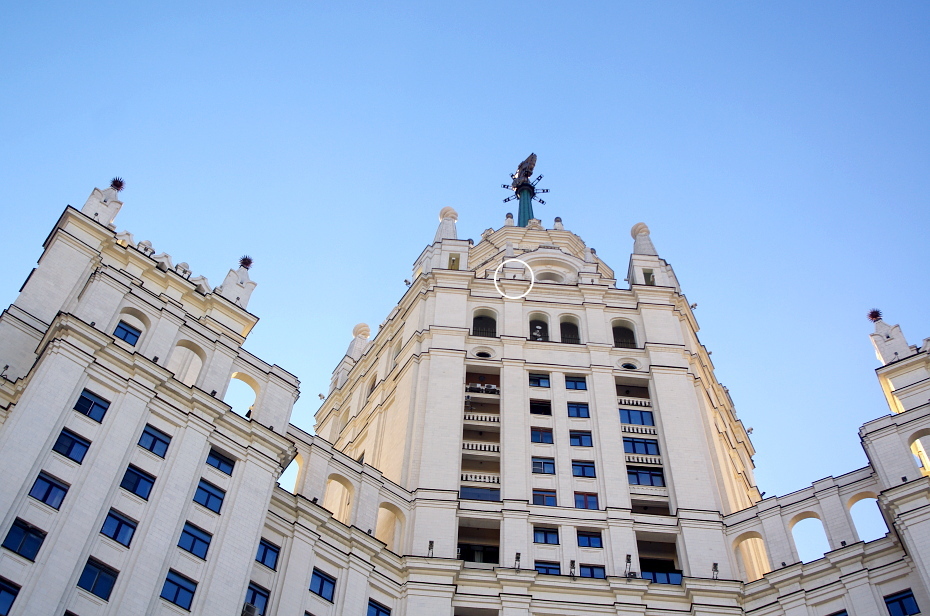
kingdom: Animalia
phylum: Chordata
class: Aves
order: Falconiformes
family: Falconidae
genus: Falco
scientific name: Falco peregrinus
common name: Peregrine falcon
